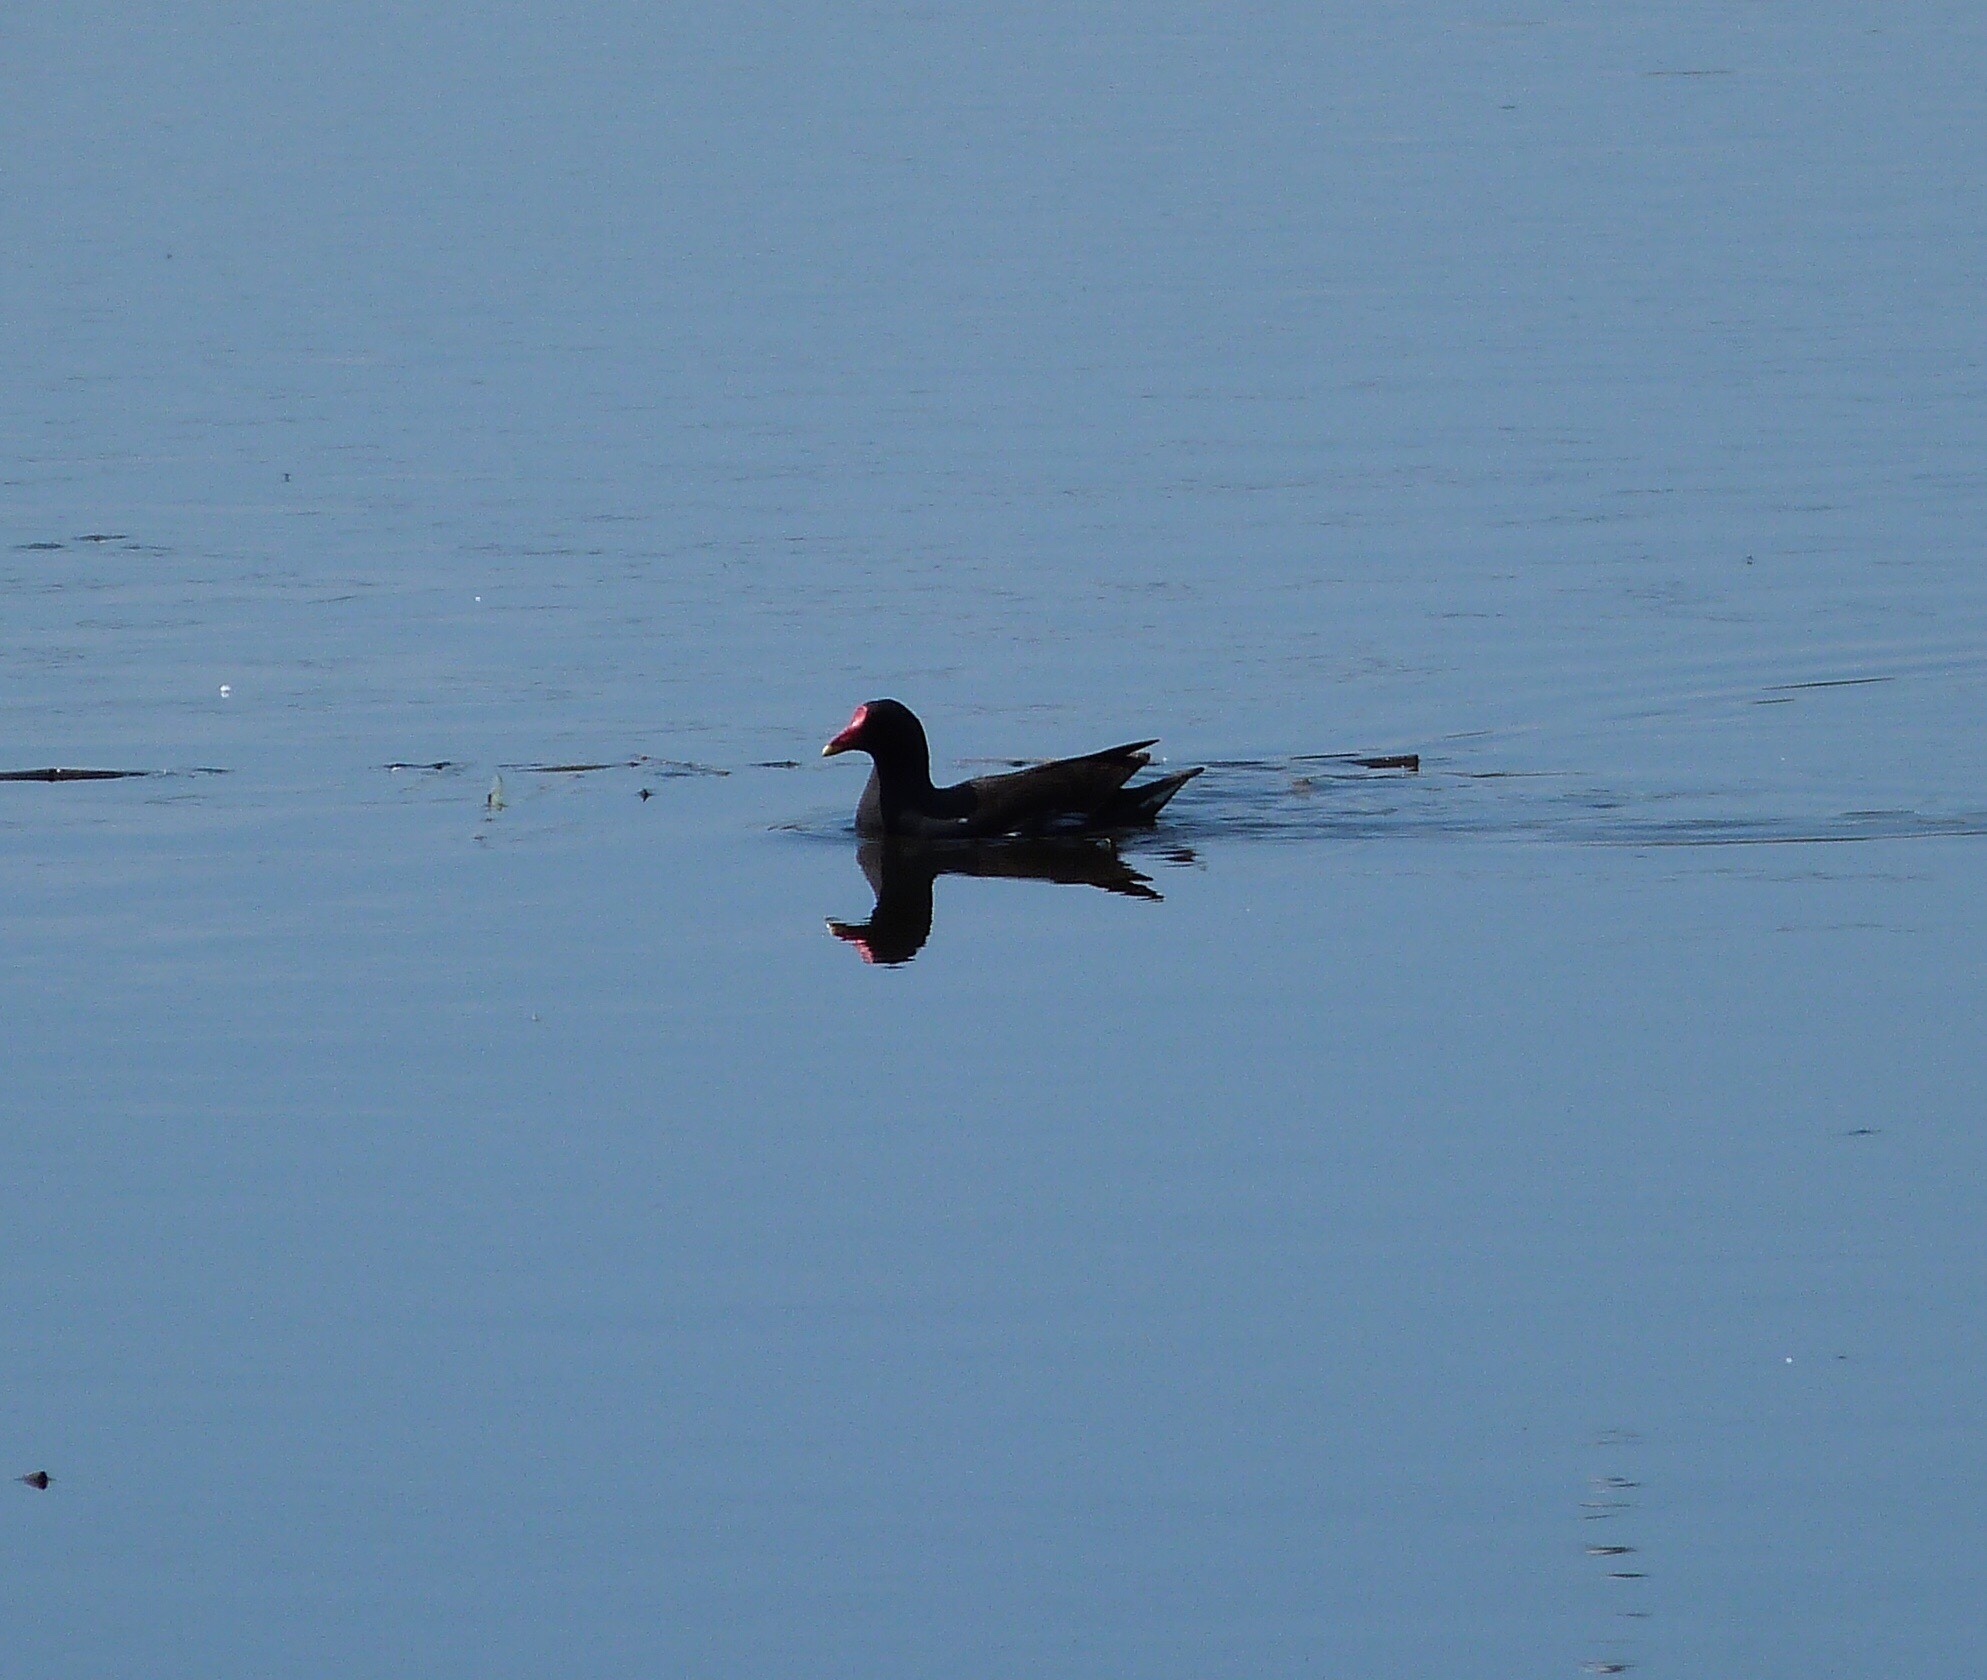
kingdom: Animalia
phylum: Chordata
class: Aves
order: Gruiformes
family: Rallidae
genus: Gallinula
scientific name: Gallinula chloropus
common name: Common moorhen
